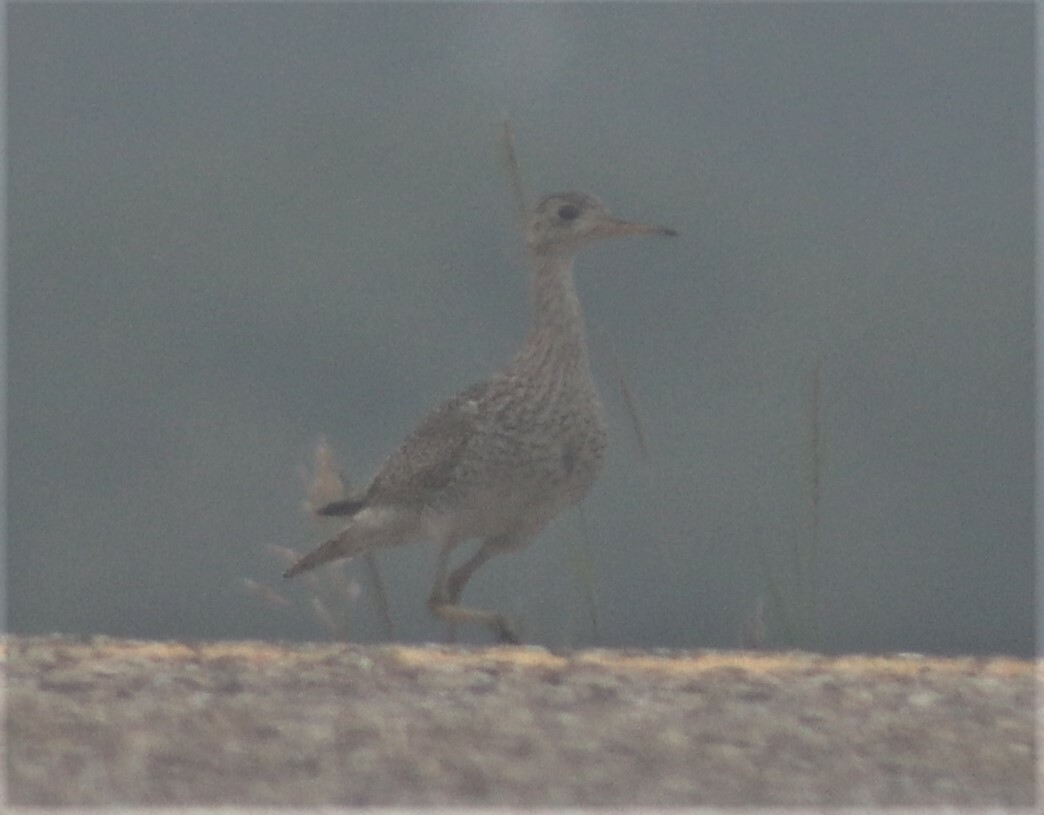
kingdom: Animalia
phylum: Chordata
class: Aves
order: Charadriiformes
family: Scolopacidae
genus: Bartramia
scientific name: Bartramia longicauda
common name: Upland sandpiper
